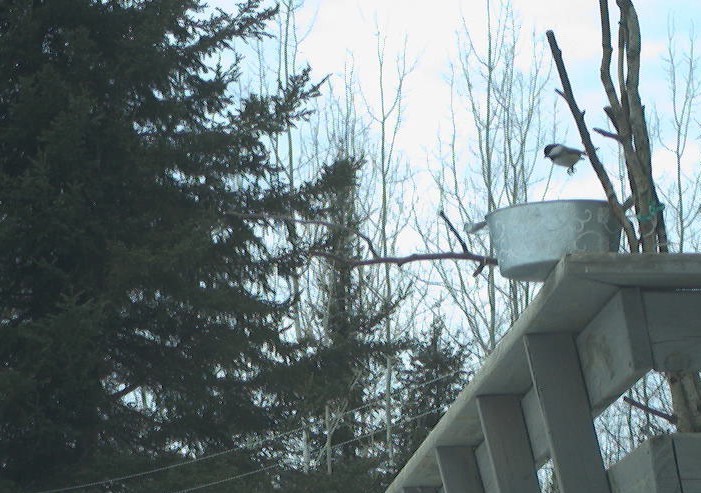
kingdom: Animalia
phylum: Chordata
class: Aves
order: Passeriformes
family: Paridae
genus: Poecile
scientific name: Poecile atricapillus
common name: Black-capped chickadee
